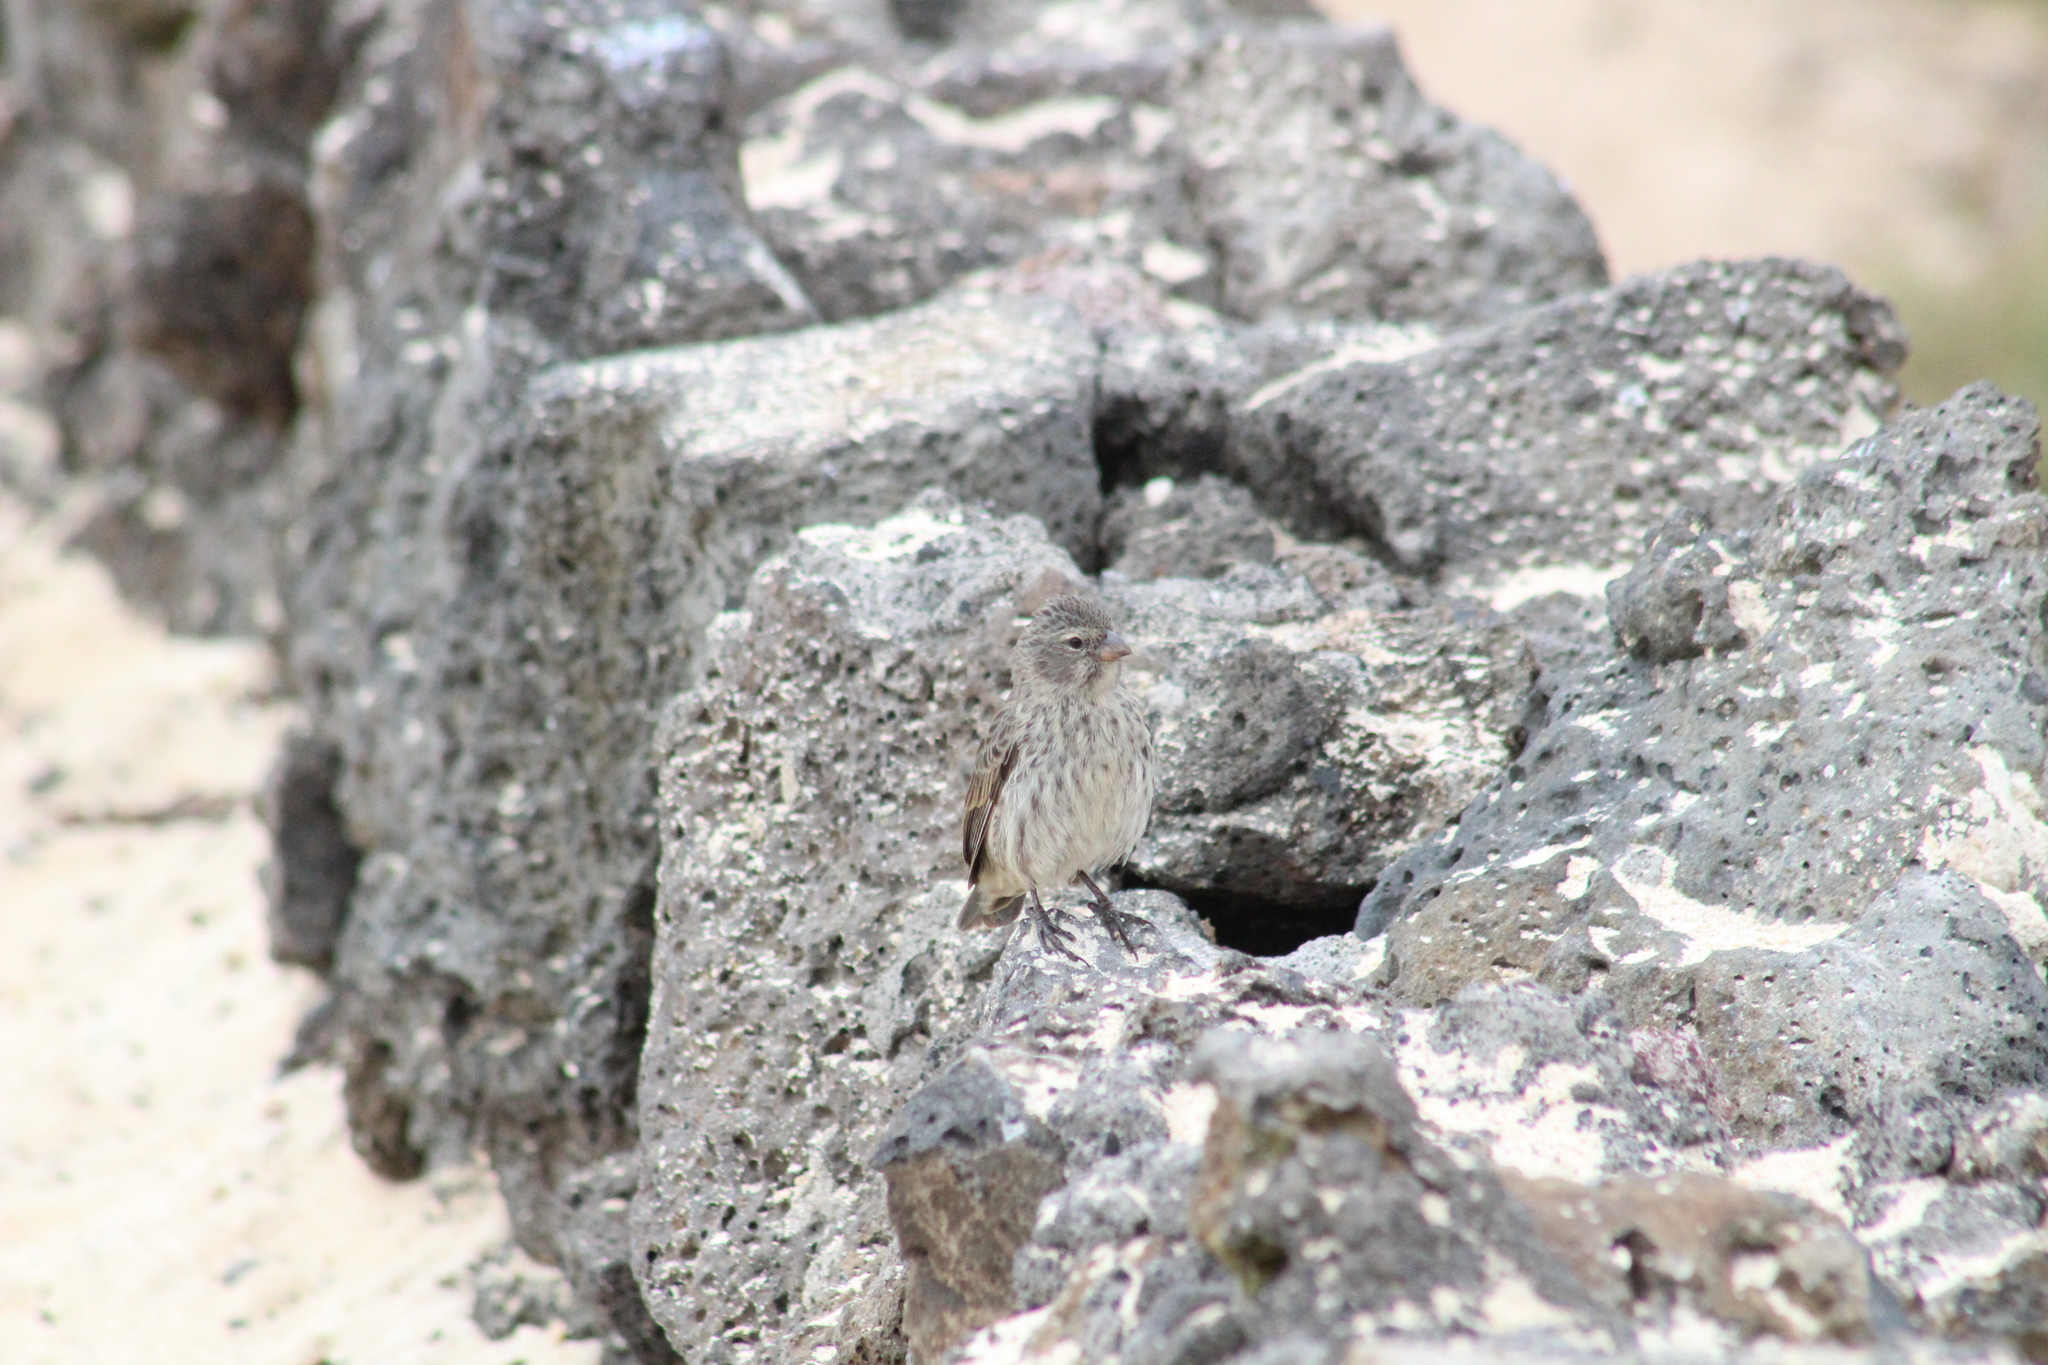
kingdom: Animalia
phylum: Chordata
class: Aves
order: Passeriformes
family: Thraupidae
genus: Geospiza
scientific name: Geospiza fuliginosa
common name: Small ground finch
